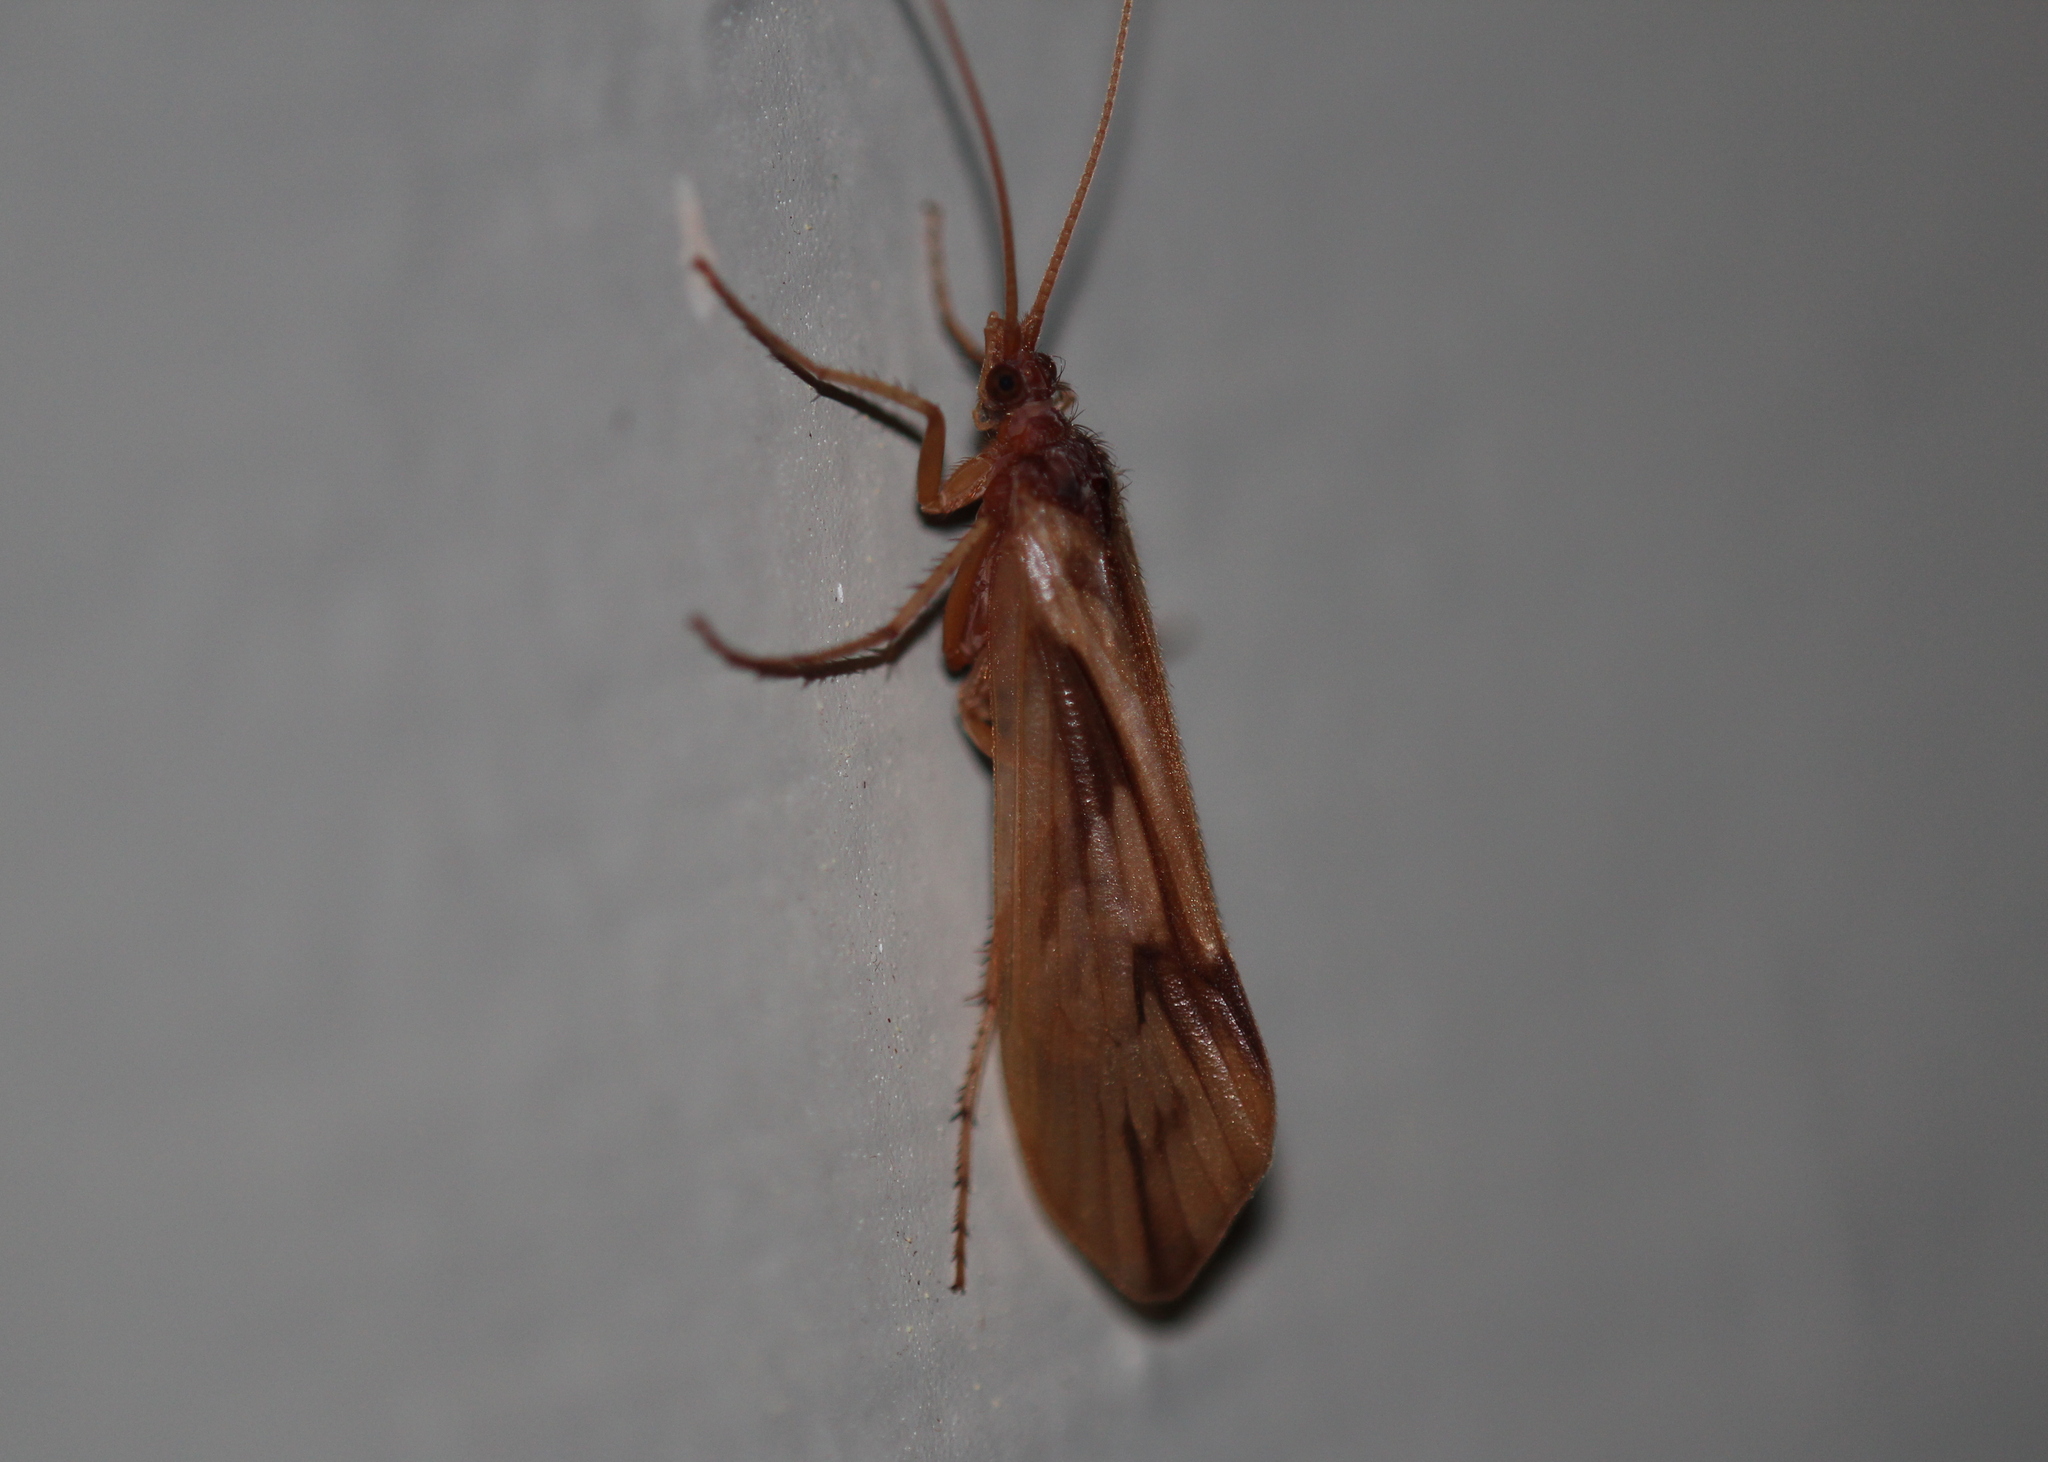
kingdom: Animalia
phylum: Arthropoda
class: Insecta
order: Trichoptera
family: Limnephilidae
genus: Platycentropus
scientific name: Platycentropus radiatus
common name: Chocolate-and-cream sedge
